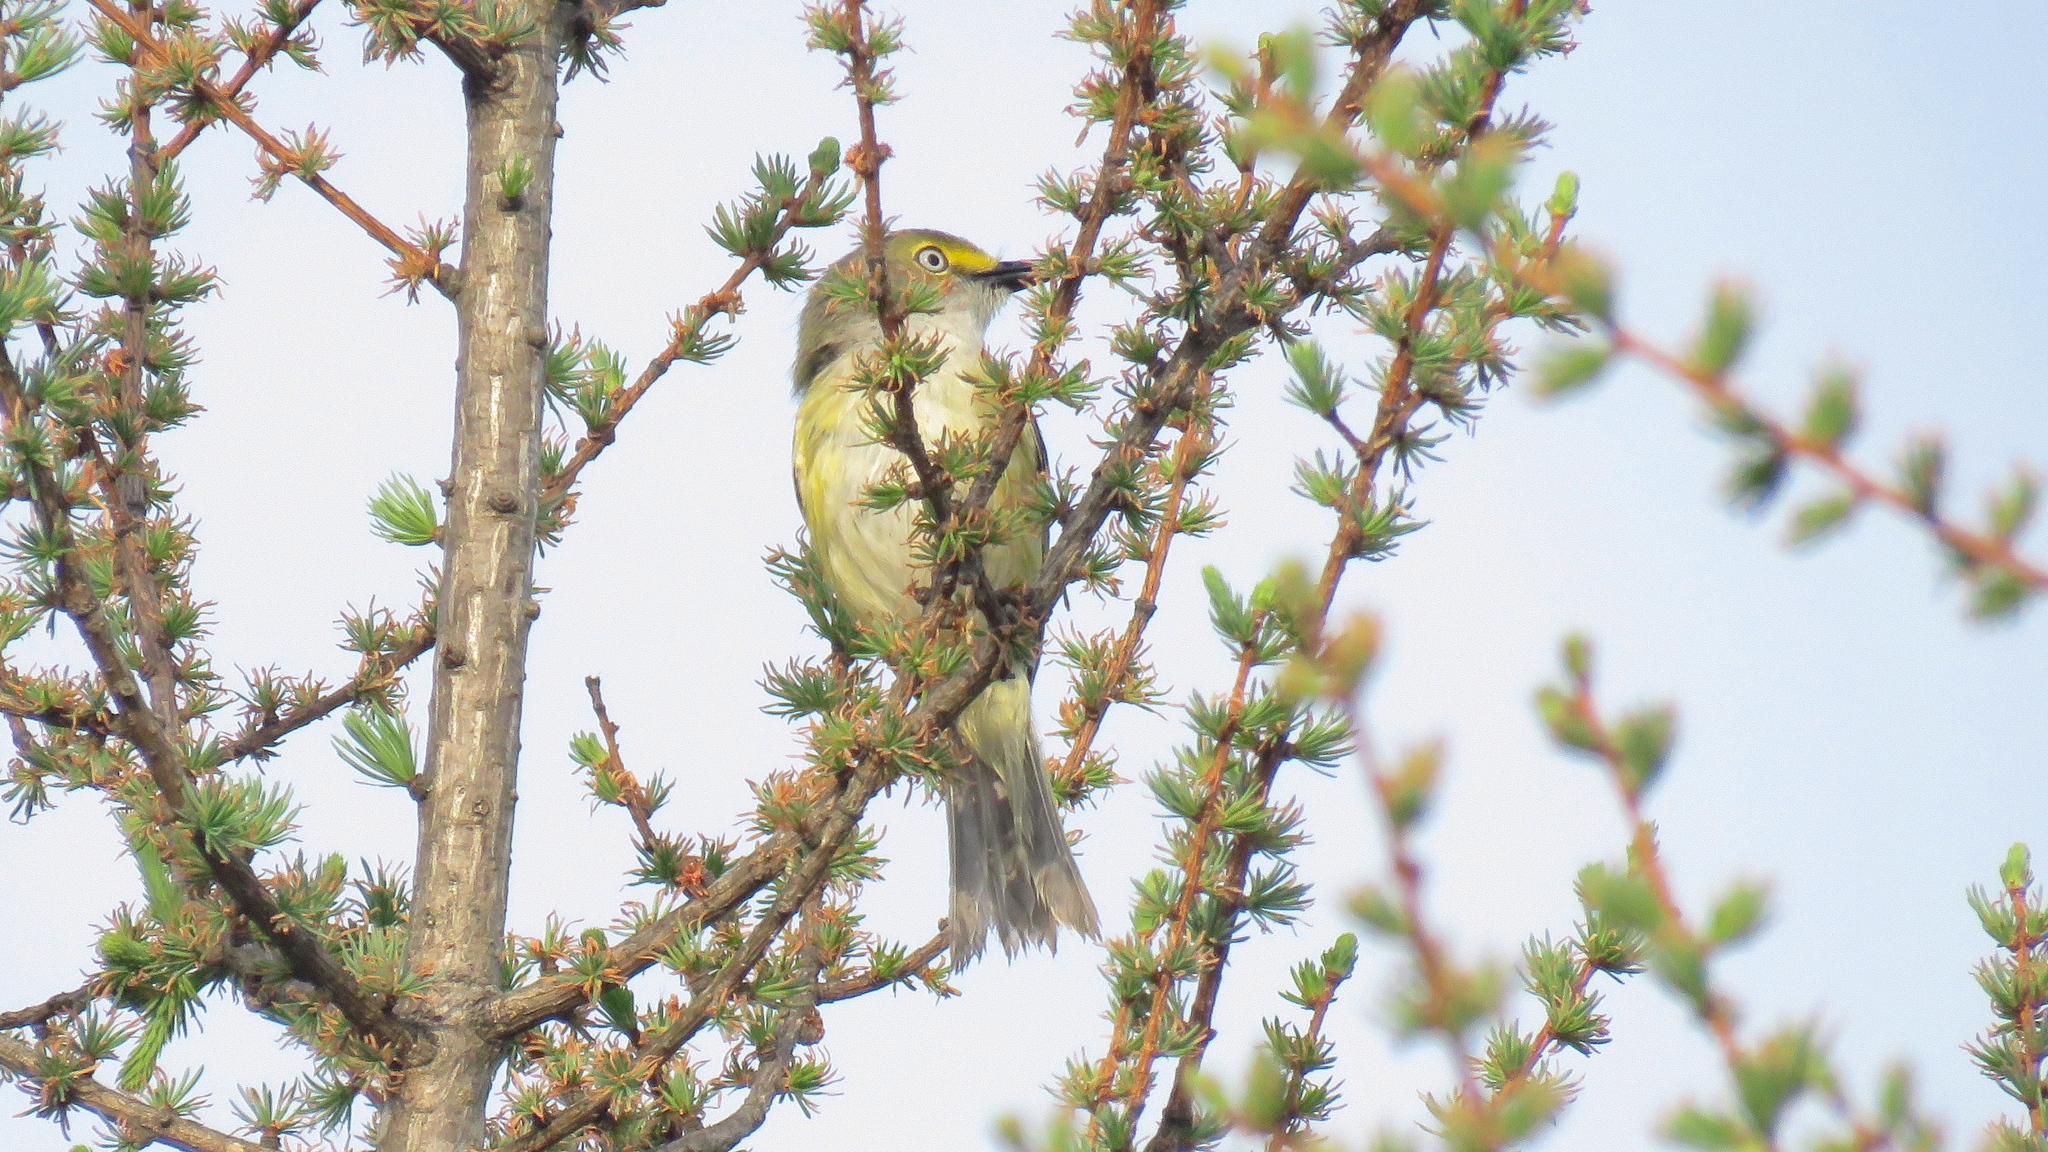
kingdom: Animalia
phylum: Chordata
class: Aves
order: Passeriformes
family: Vireonidae
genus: Vireo
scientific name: Vireo griseus
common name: White-eyed vireo
